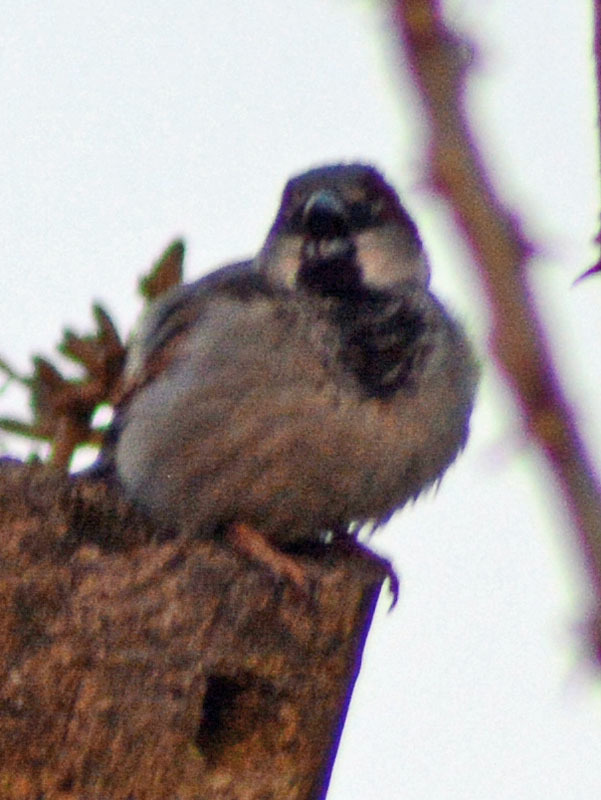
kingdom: Animalia
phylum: Chordata
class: Aves
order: Passeriformes
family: Passeridae
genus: Passer
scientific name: Passer domesticus
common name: House sparrow
